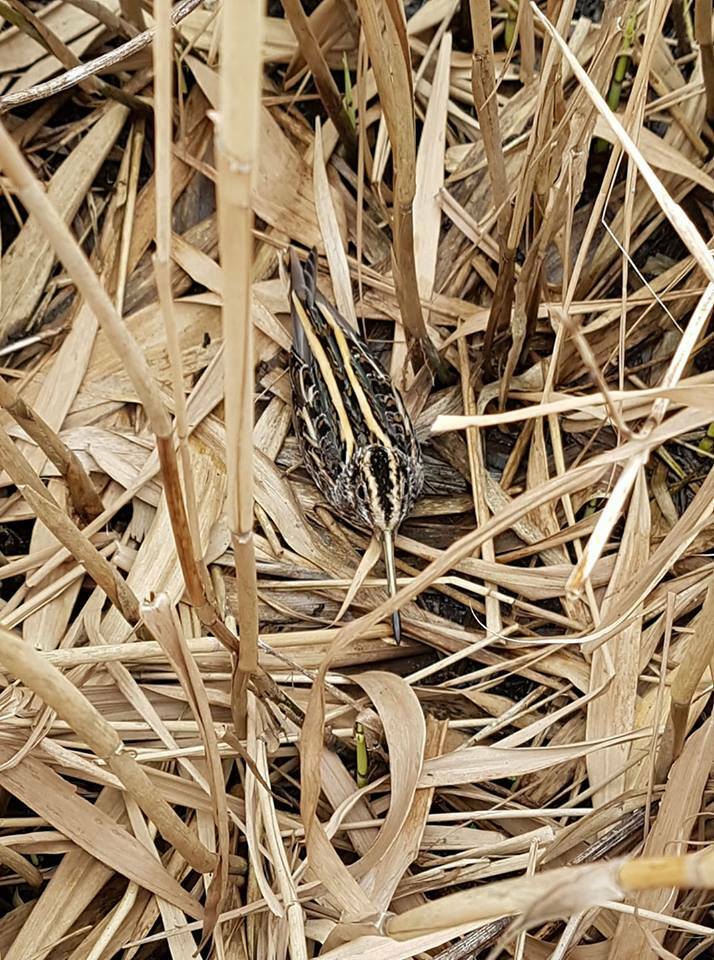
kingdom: Animalia
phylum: Chordata
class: Aves
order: Charadriiformes
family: Scolopacidae
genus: Lymnocryptes
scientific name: Lymnocryptes minimus
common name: Jack snipe
